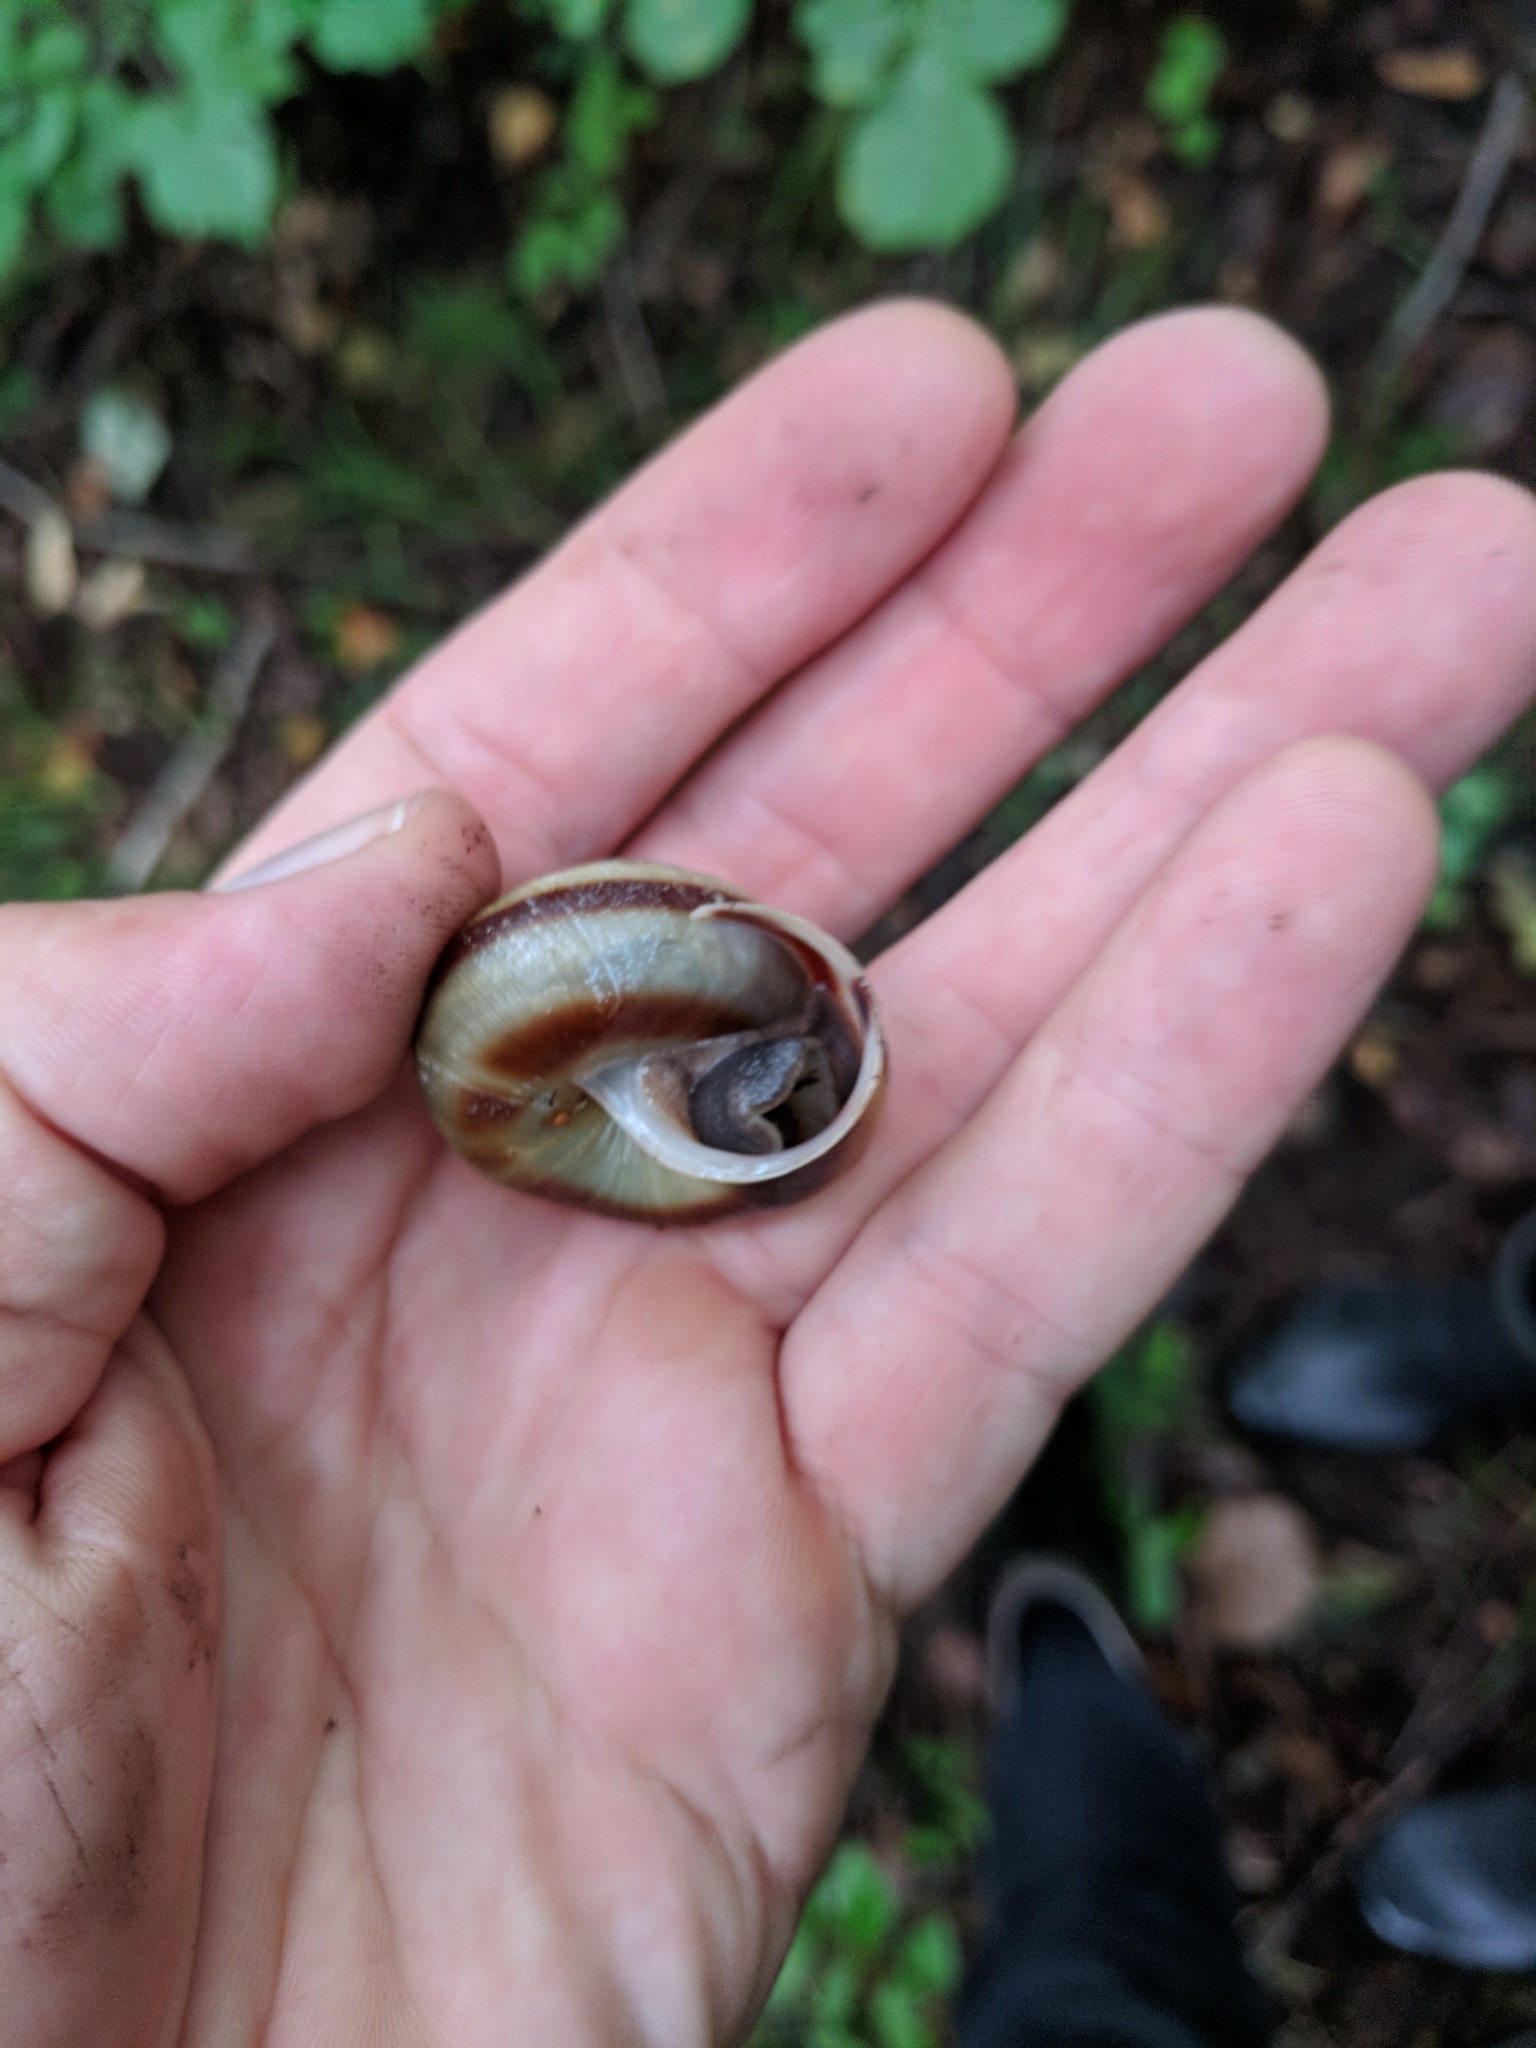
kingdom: Animalia
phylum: Mollusca
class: Gastropoda
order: Stylommatophora
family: Camaenidae
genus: Karaftohelix
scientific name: Karaftohelix maackii
